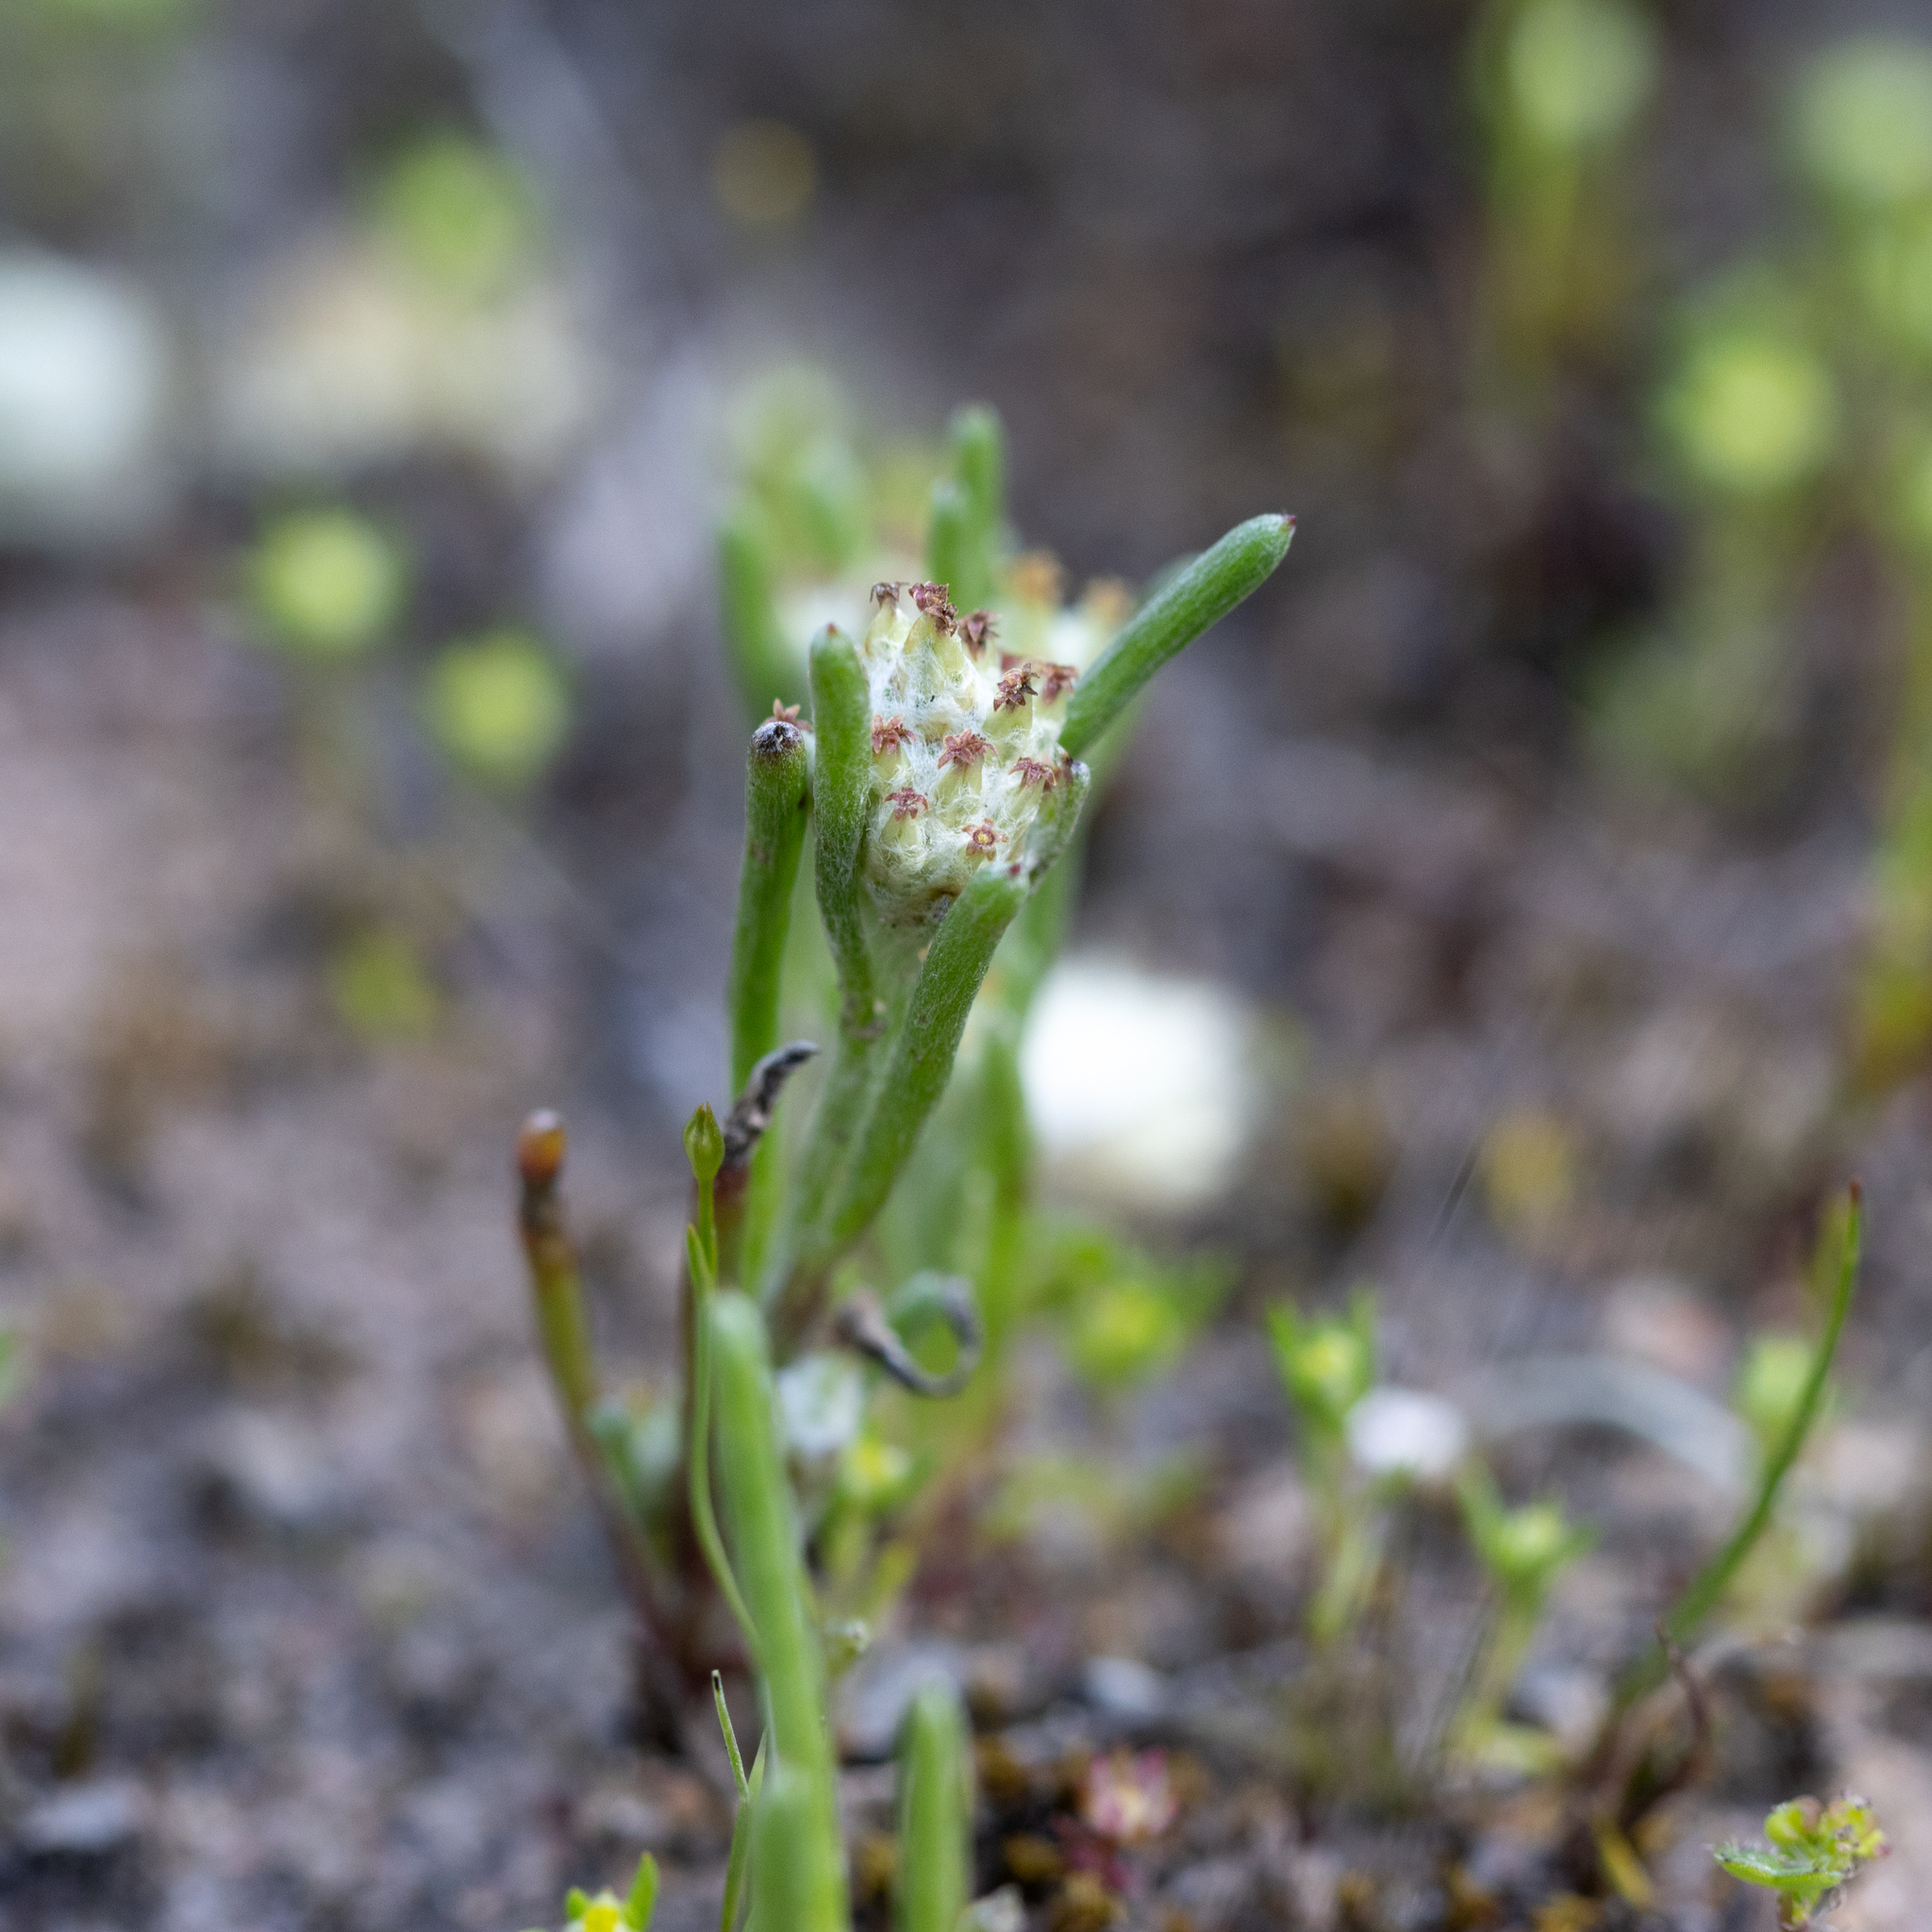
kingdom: Plantae
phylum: Tracheophyta
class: Magnoliopsida
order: Asterales
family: Asteraceae
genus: Blennospora
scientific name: Blennospora drummondii
